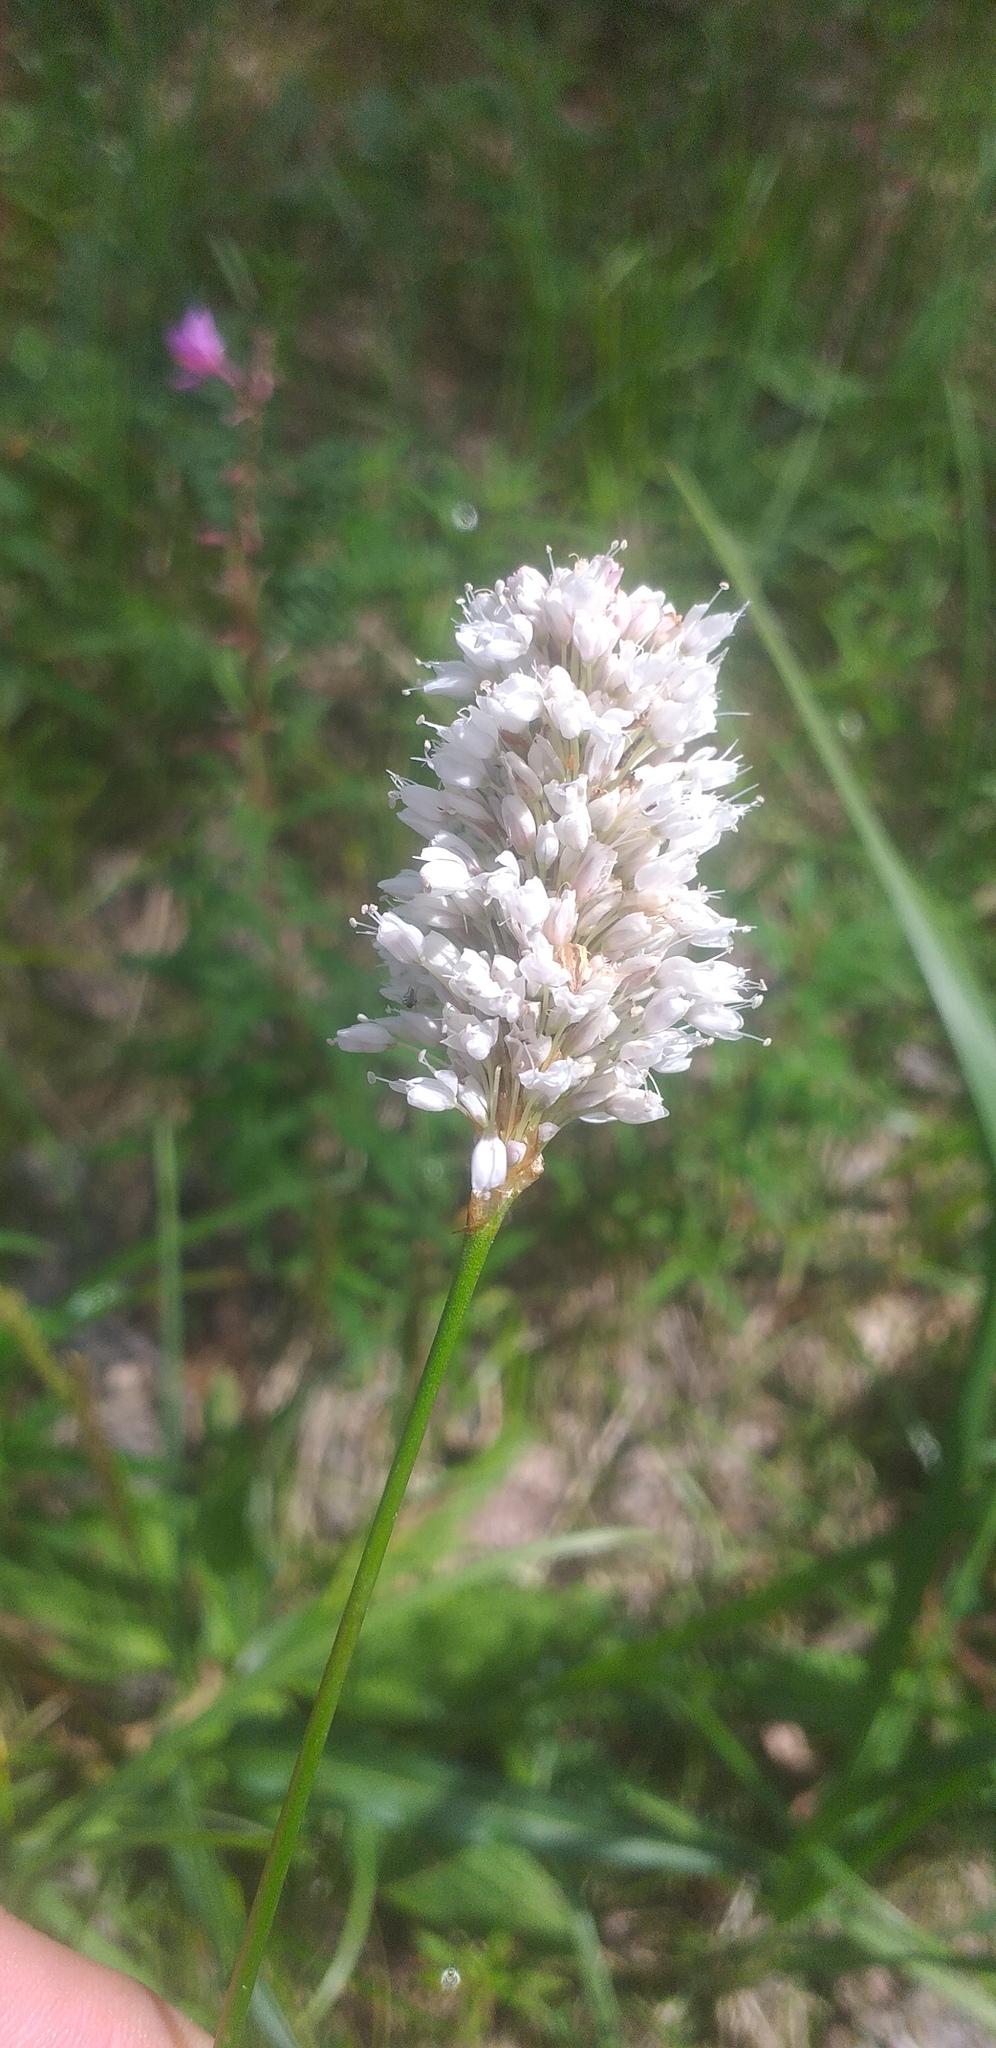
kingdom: Plantae
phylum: Tracheophyta
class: Magnoliopsida
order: Caryophyllales
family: Polygonaceae
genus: Bistorta
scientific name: Bistorta vivipara
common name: Alpine bistort
